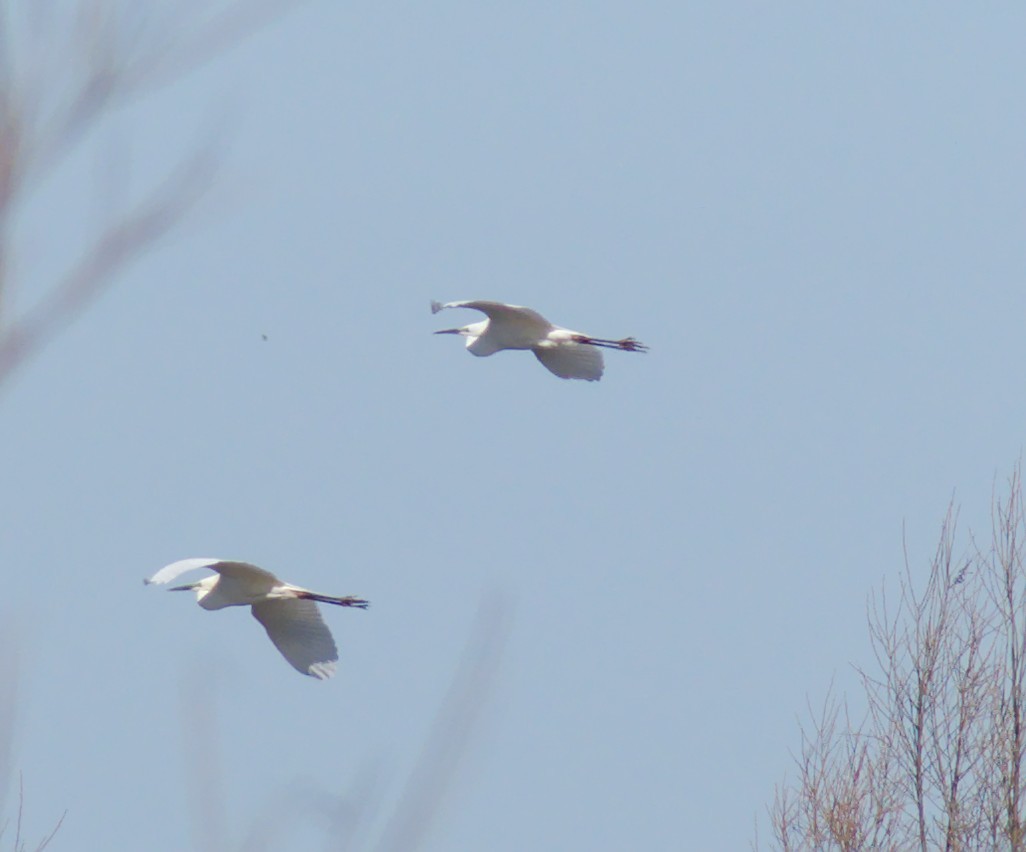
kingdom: Animalia
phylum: Chordata
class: Aves
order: Pelecaniformes
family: Ardeidae
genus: Ardea
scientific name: Ardea alba
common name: Great egret
